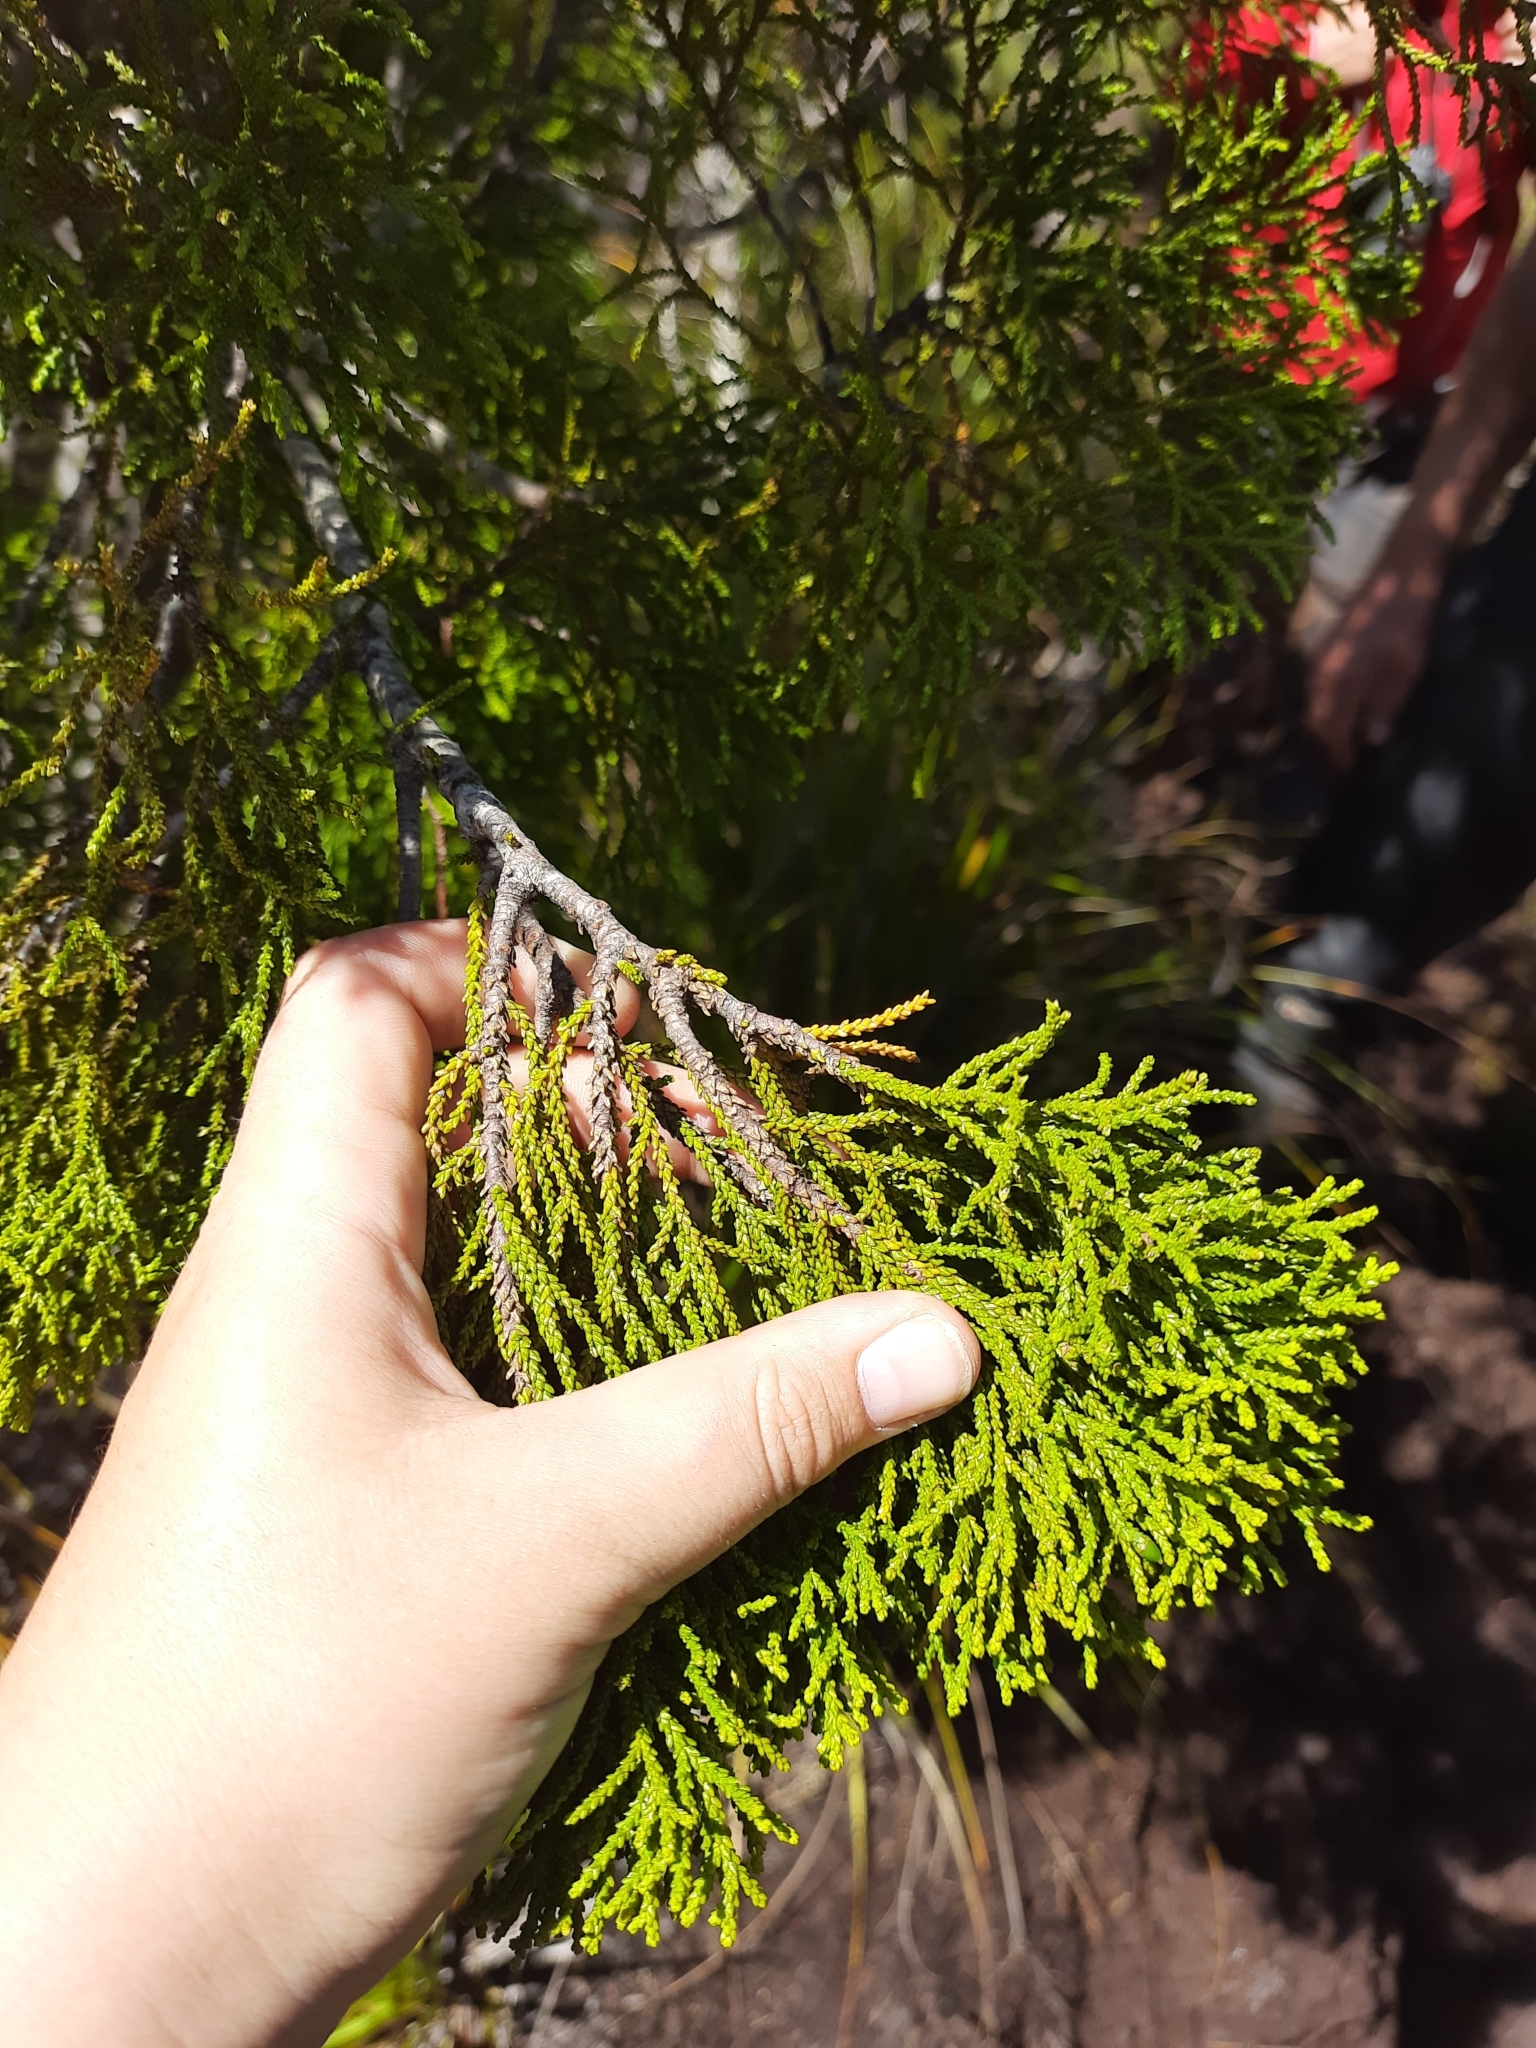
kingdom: Plantae
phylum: Tracheophyta
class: Pinopsida
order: Pinales
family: Podocarpaceae
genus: Lepidothamnus
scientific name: Lepidothamnus intermedius
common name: Yellow silver pine
